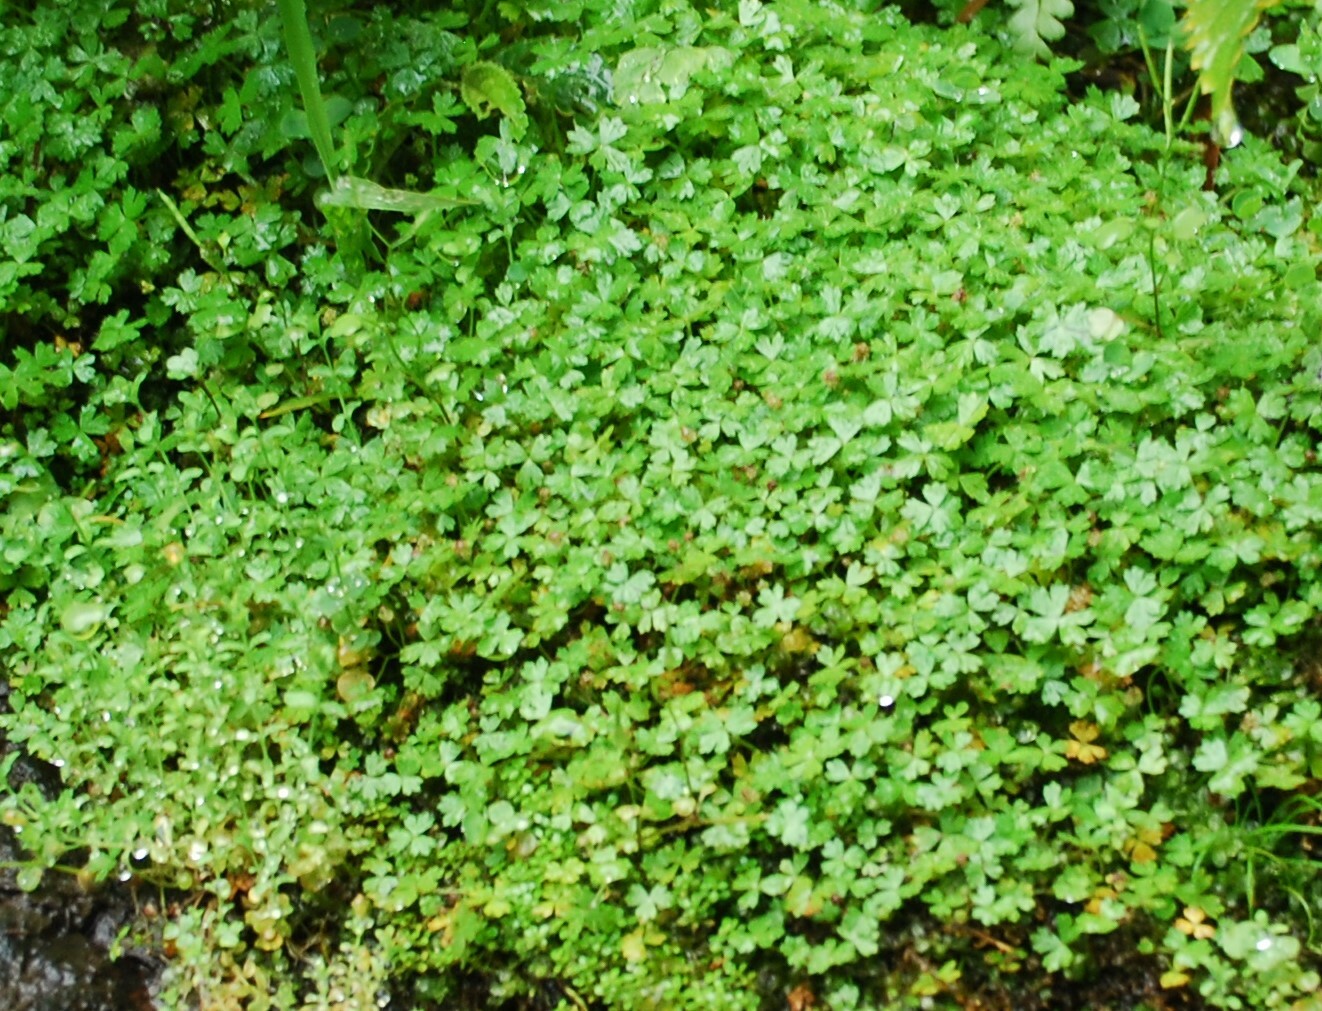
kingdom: Plantae
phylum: Tracheophyta
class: Magnoliopsida
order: Apiales
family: Araliaceae
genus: Hydrocotyle
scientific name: Hydrocotyle tripartita
